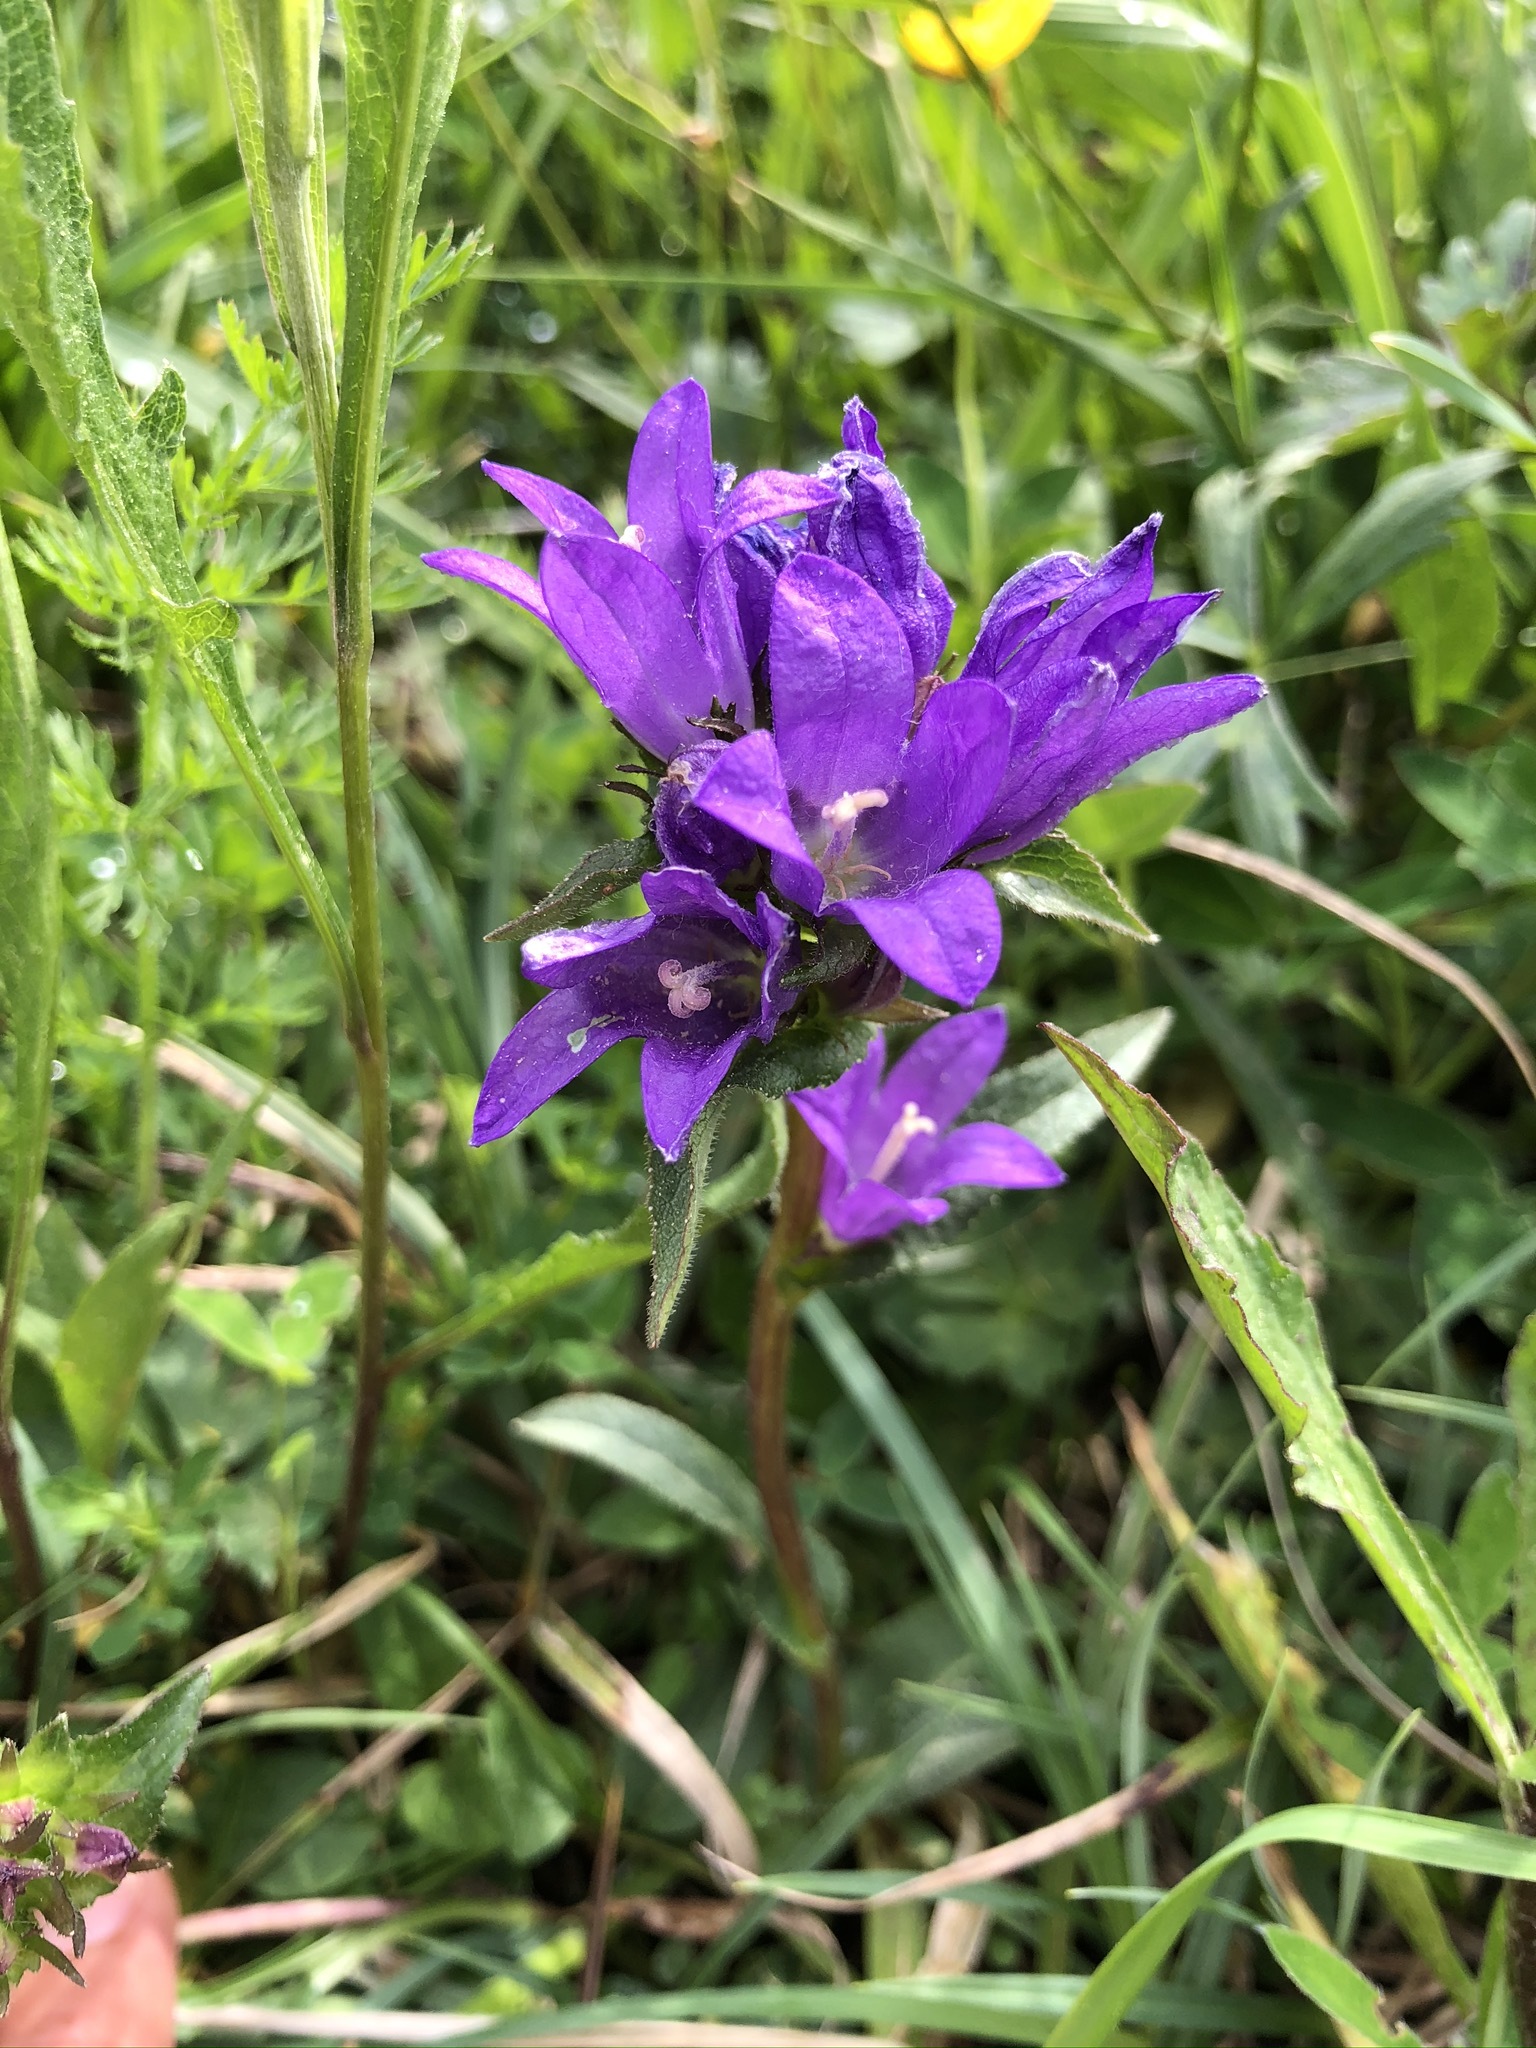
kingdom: Plantae
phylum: Tracheophyta
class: Magnoliopsida
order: Asterales
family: Campanulaceae
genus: Campanula
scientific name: Campanula glomerata
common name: Clustered bellflower
